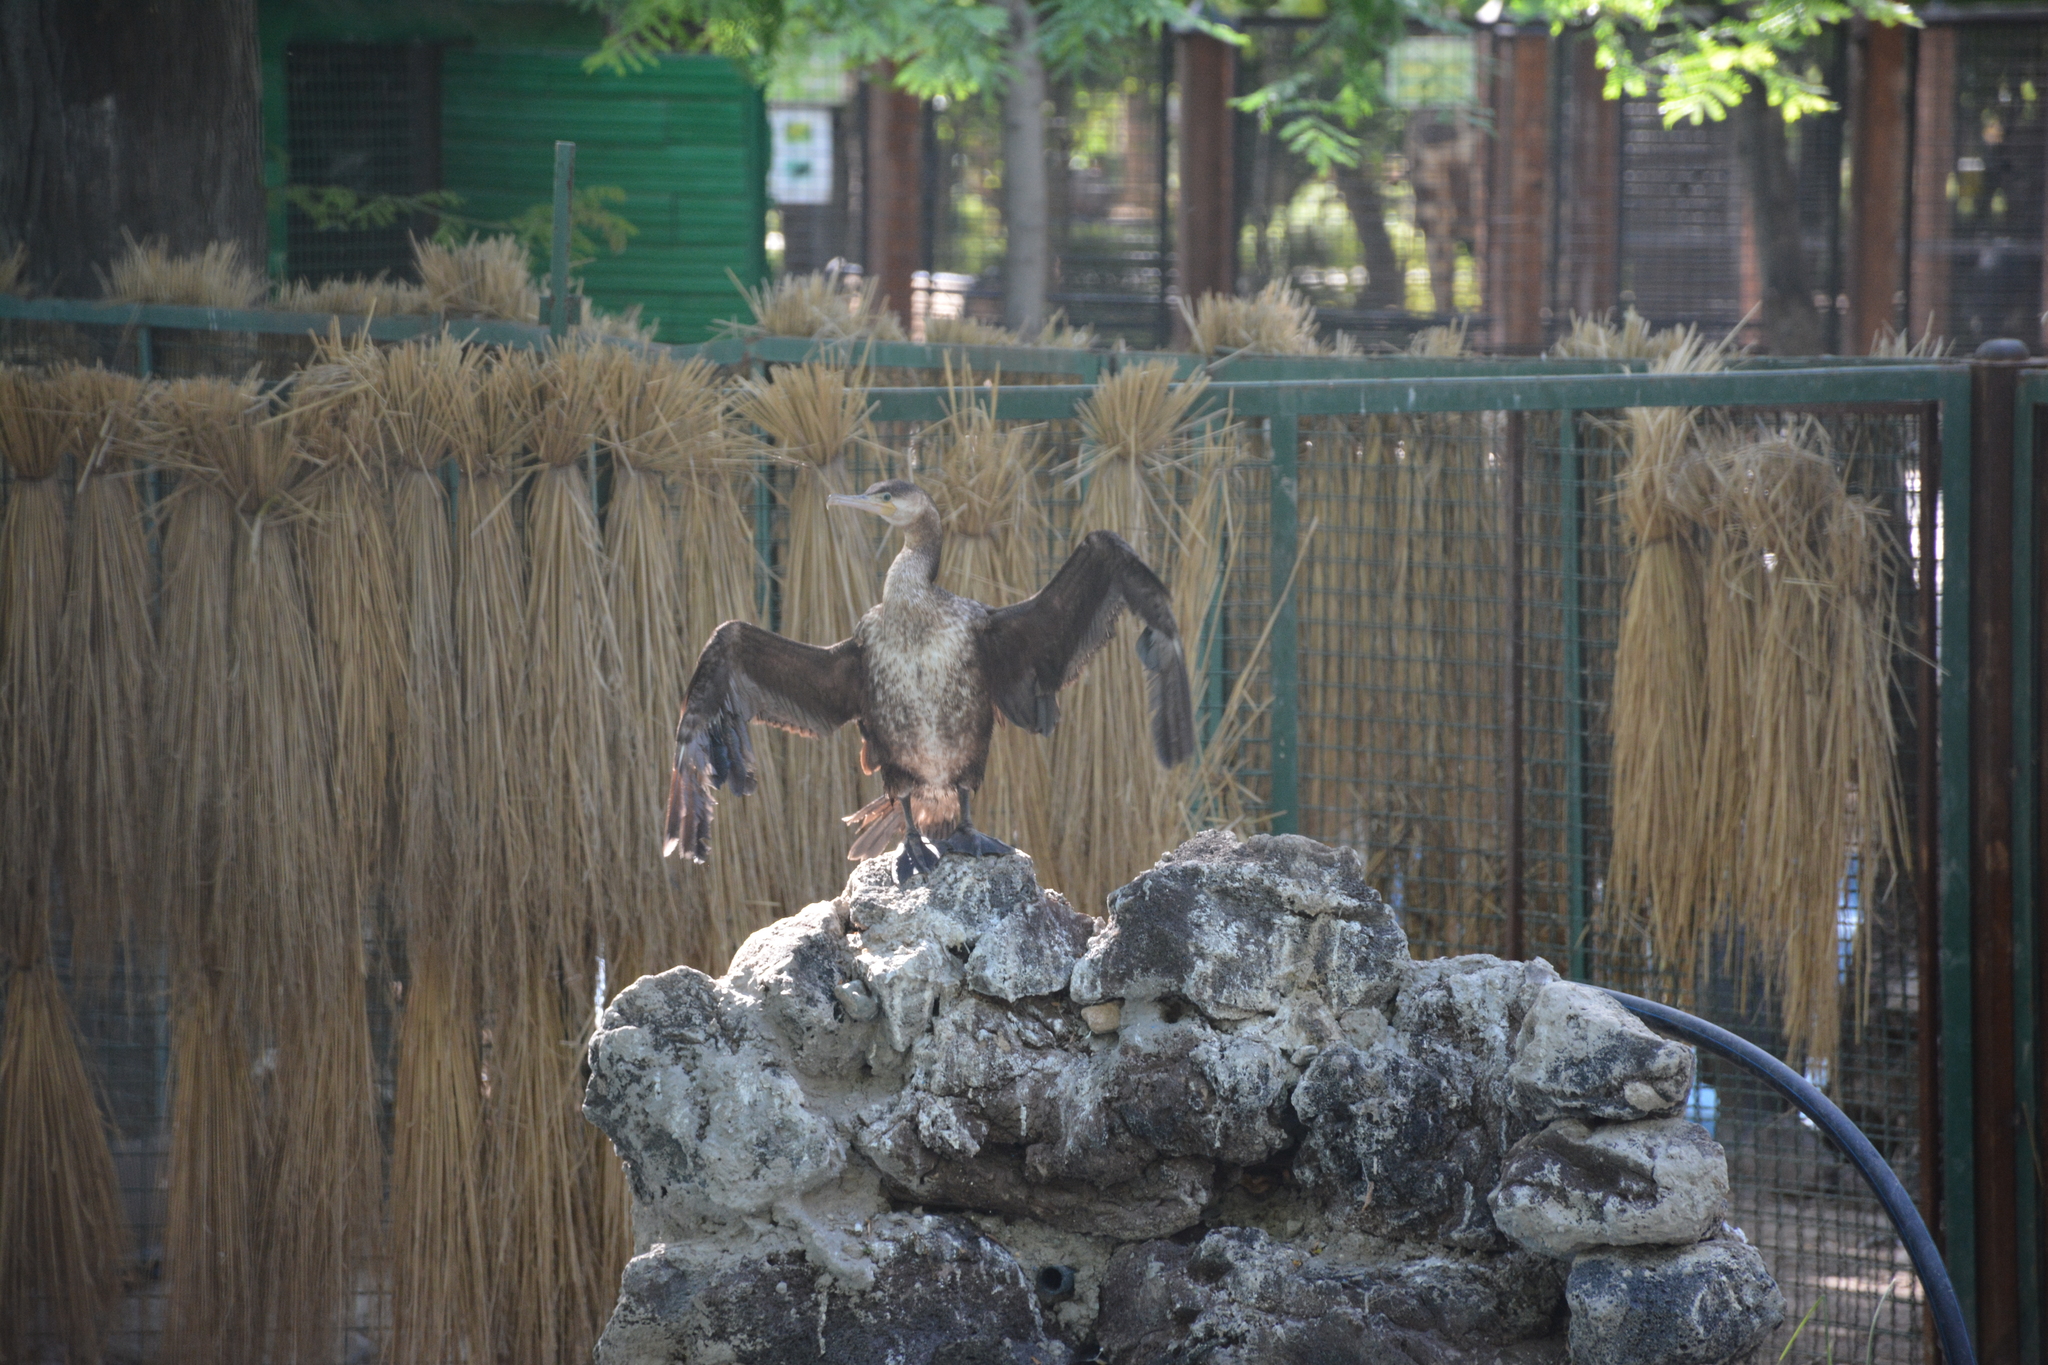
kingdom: Animalia
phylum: Chordata
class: Aves
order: Suliformes
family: Phalacrocoracidae
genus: Phalacrocorax
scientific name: Phalacrocorax carbo
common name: Great cormorant
